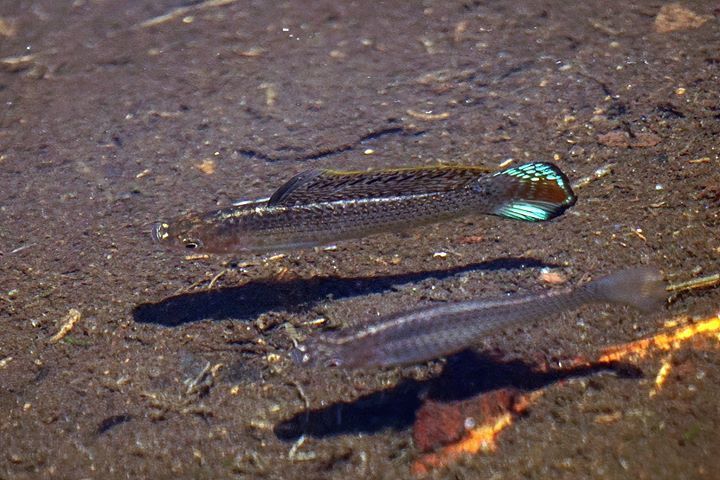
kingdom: Animalia
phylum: Chordata
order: Cyprinodontiformes
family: Poeciliidae
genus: Poecilia
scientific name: Poecilia latipinna
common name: Sailfin molly
